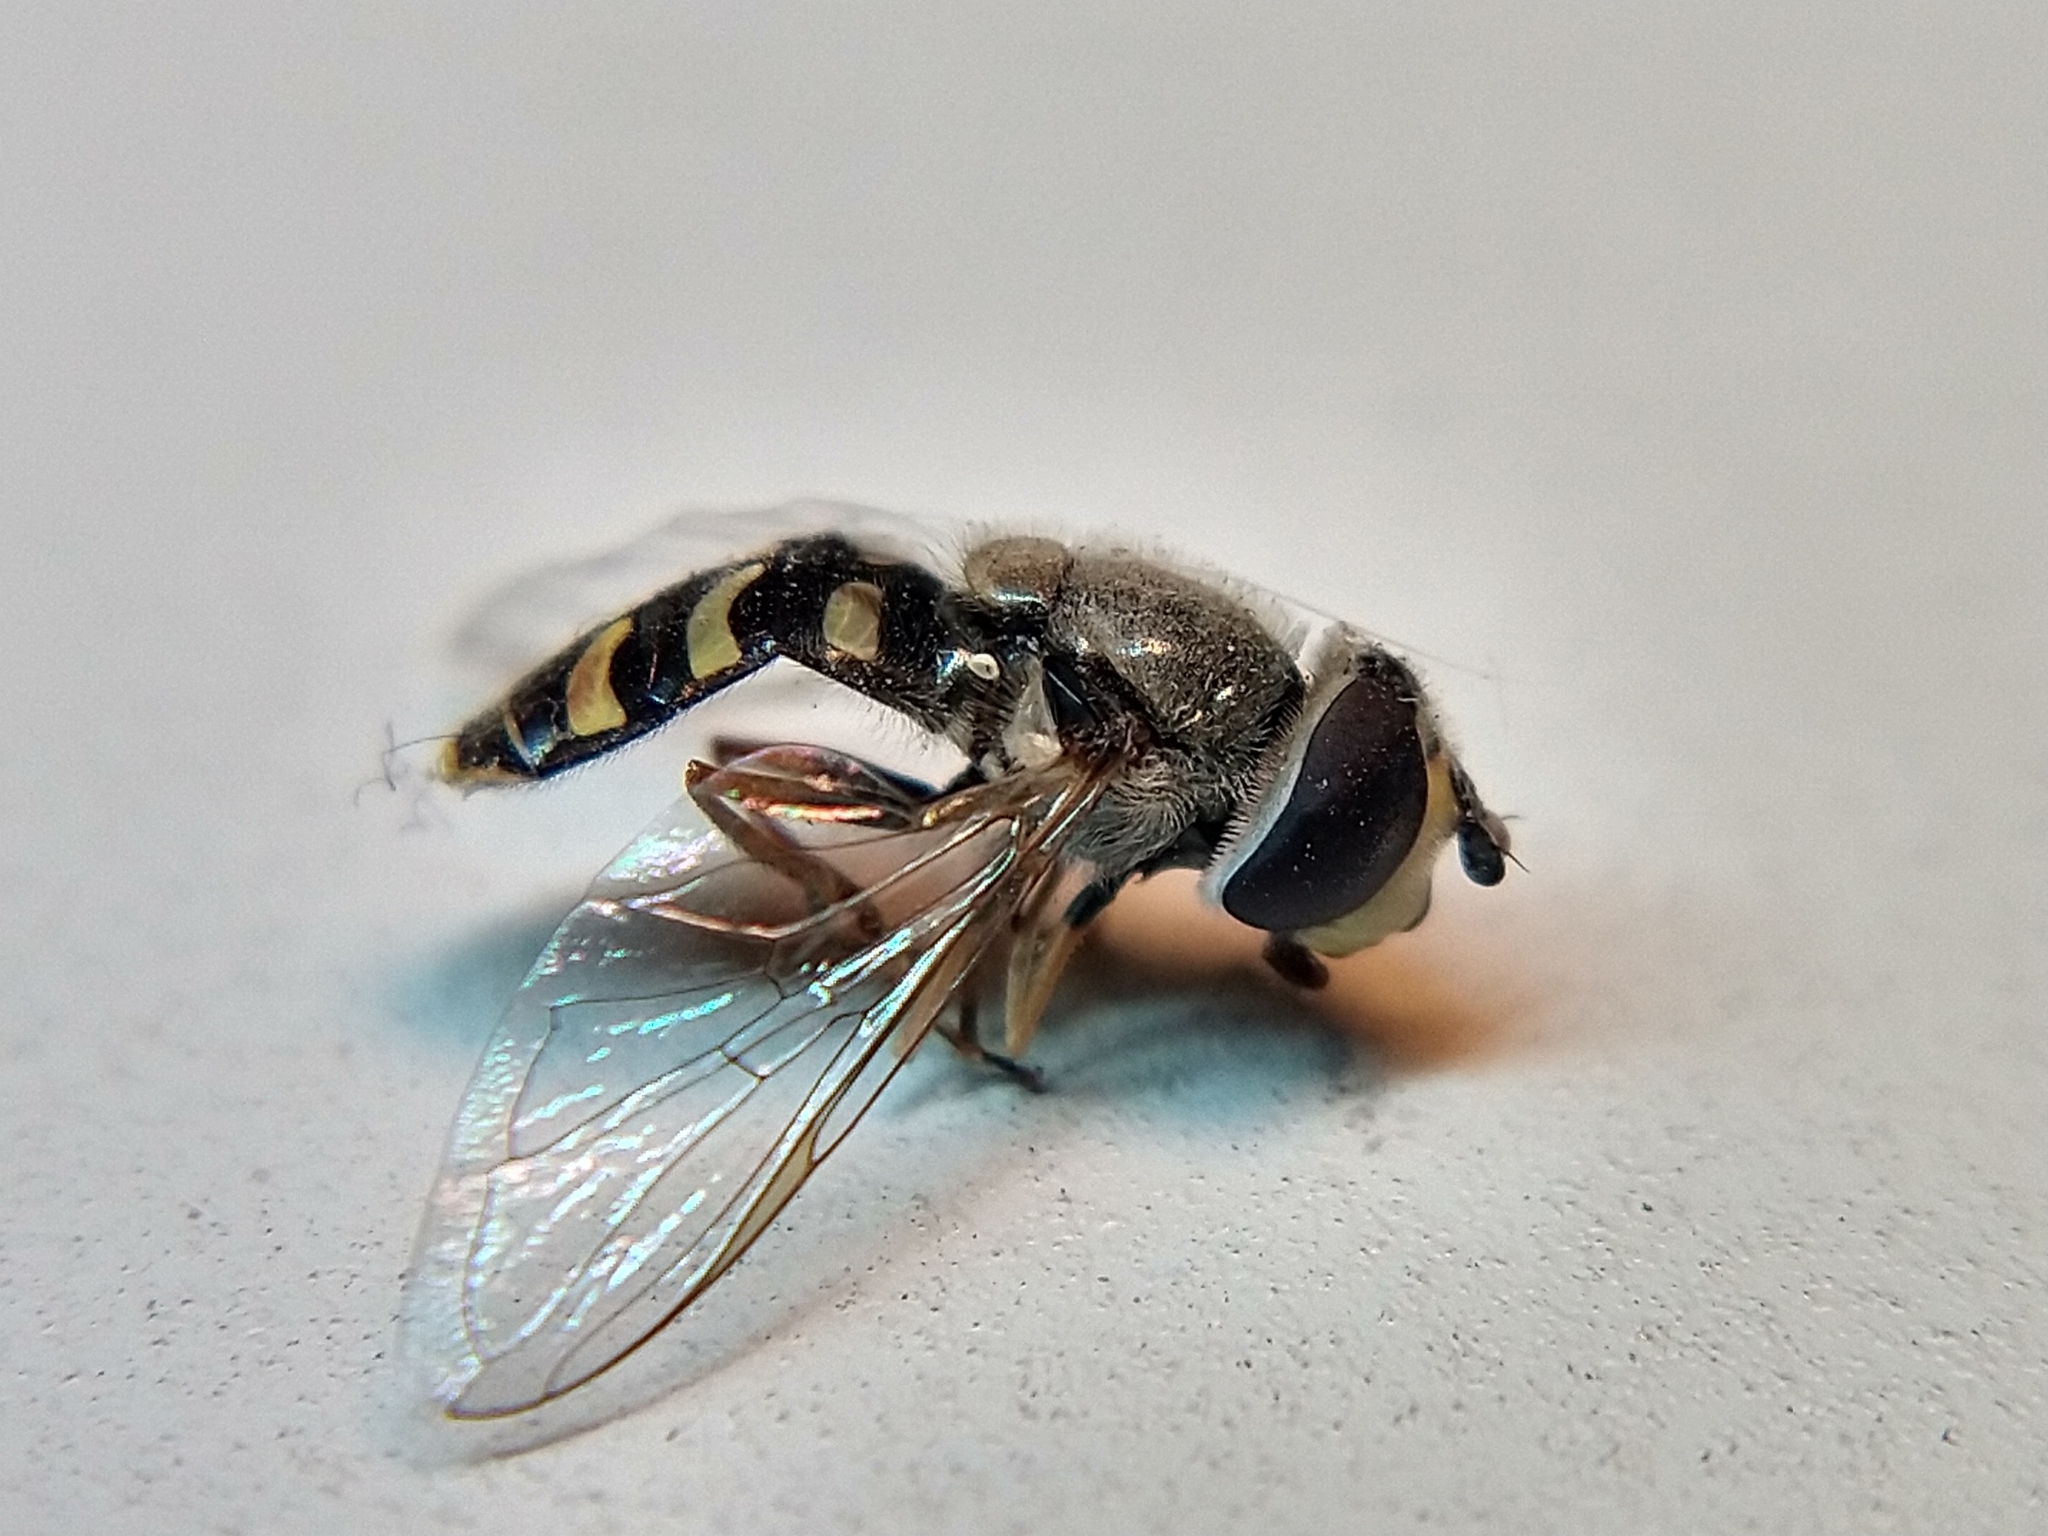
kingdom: Animalia
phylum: Arthropoda
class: Insecta
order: Diptera
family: Syrphidae
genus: Eupeodes
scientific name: Eupeodes volucris
